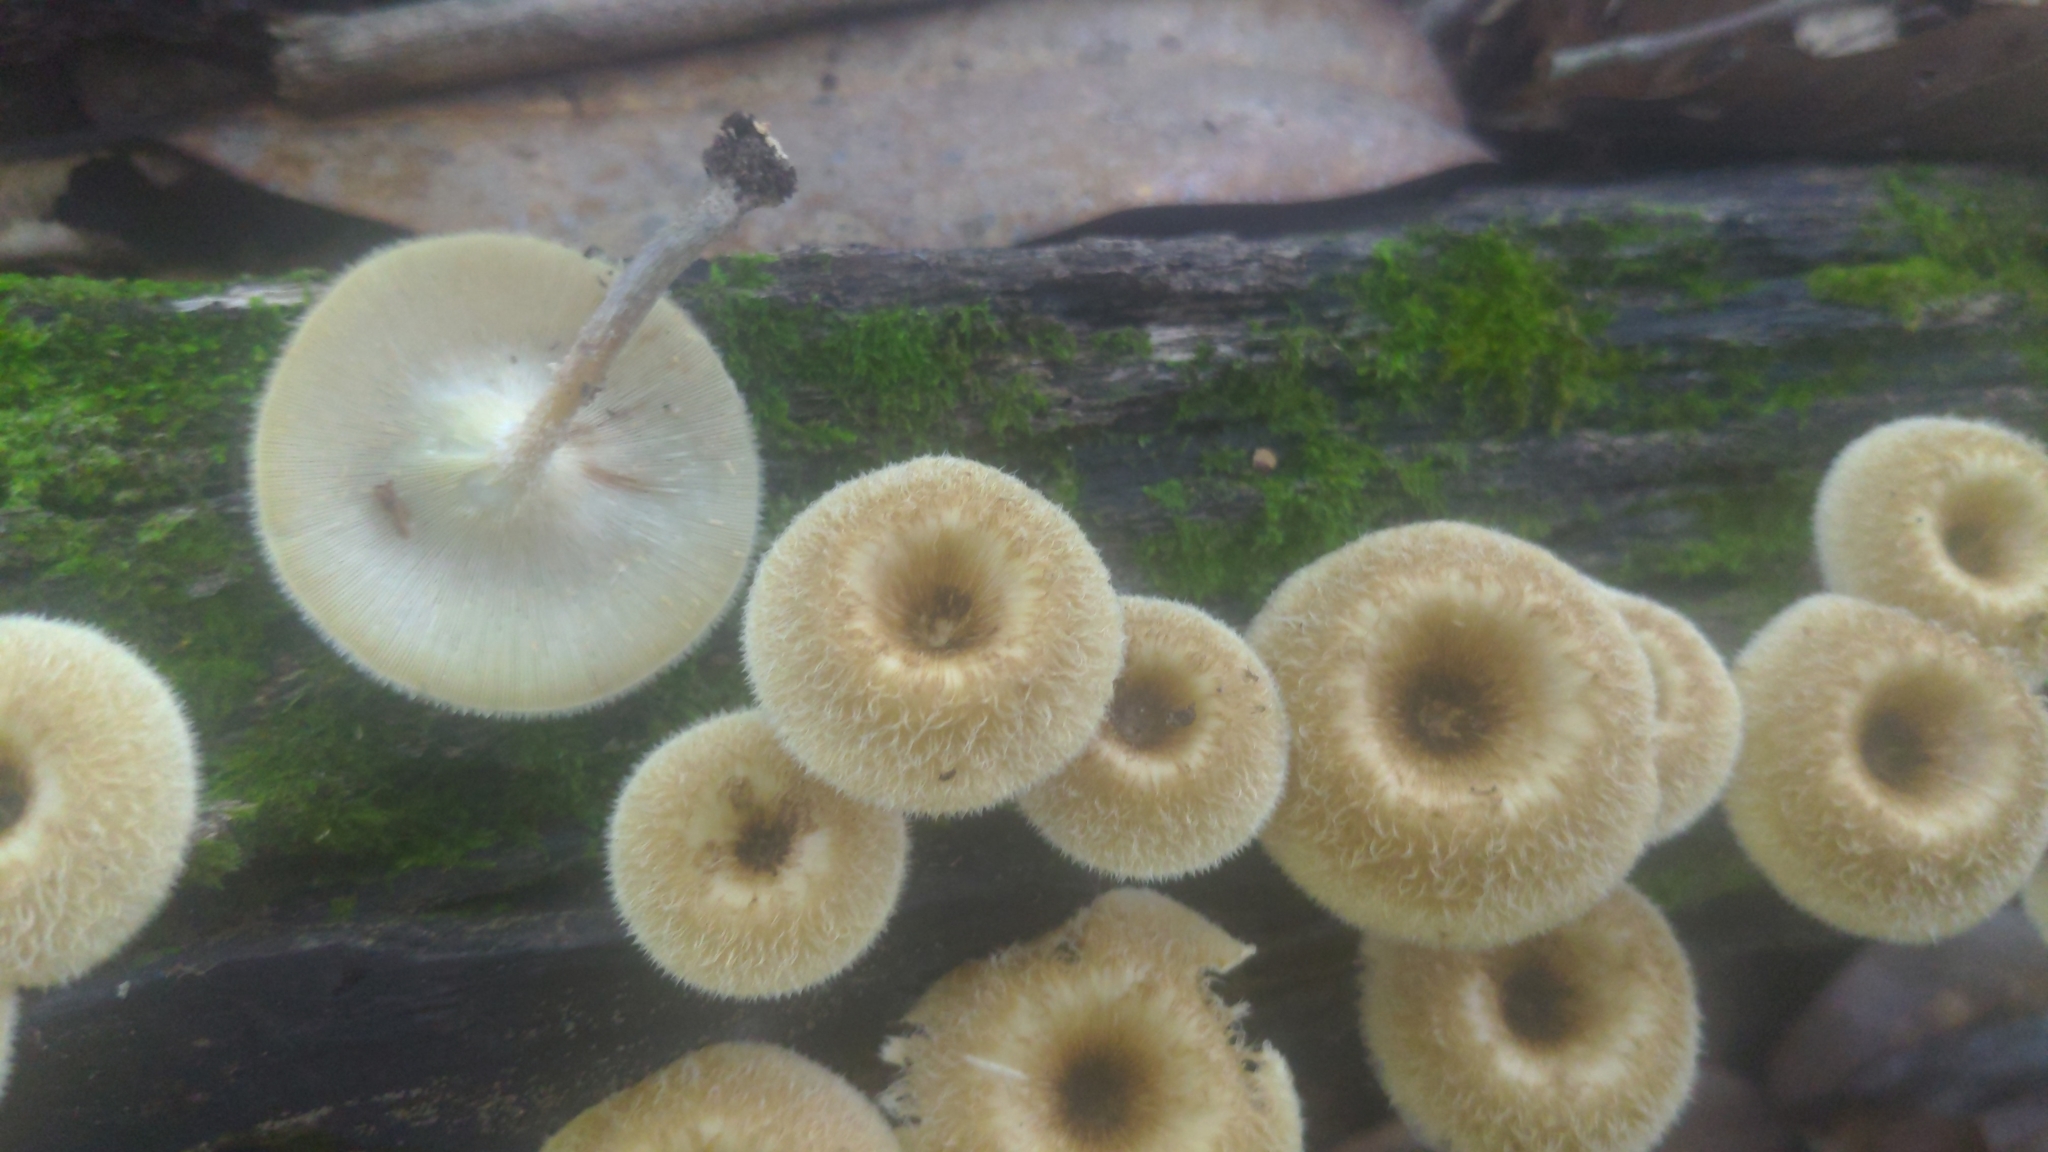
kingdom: Fungi
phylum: Basidiomycota
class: Agaricomycetes
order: Polyporales
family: Polyporaceae
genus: Lentinus
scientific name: Lentinus crinitus
